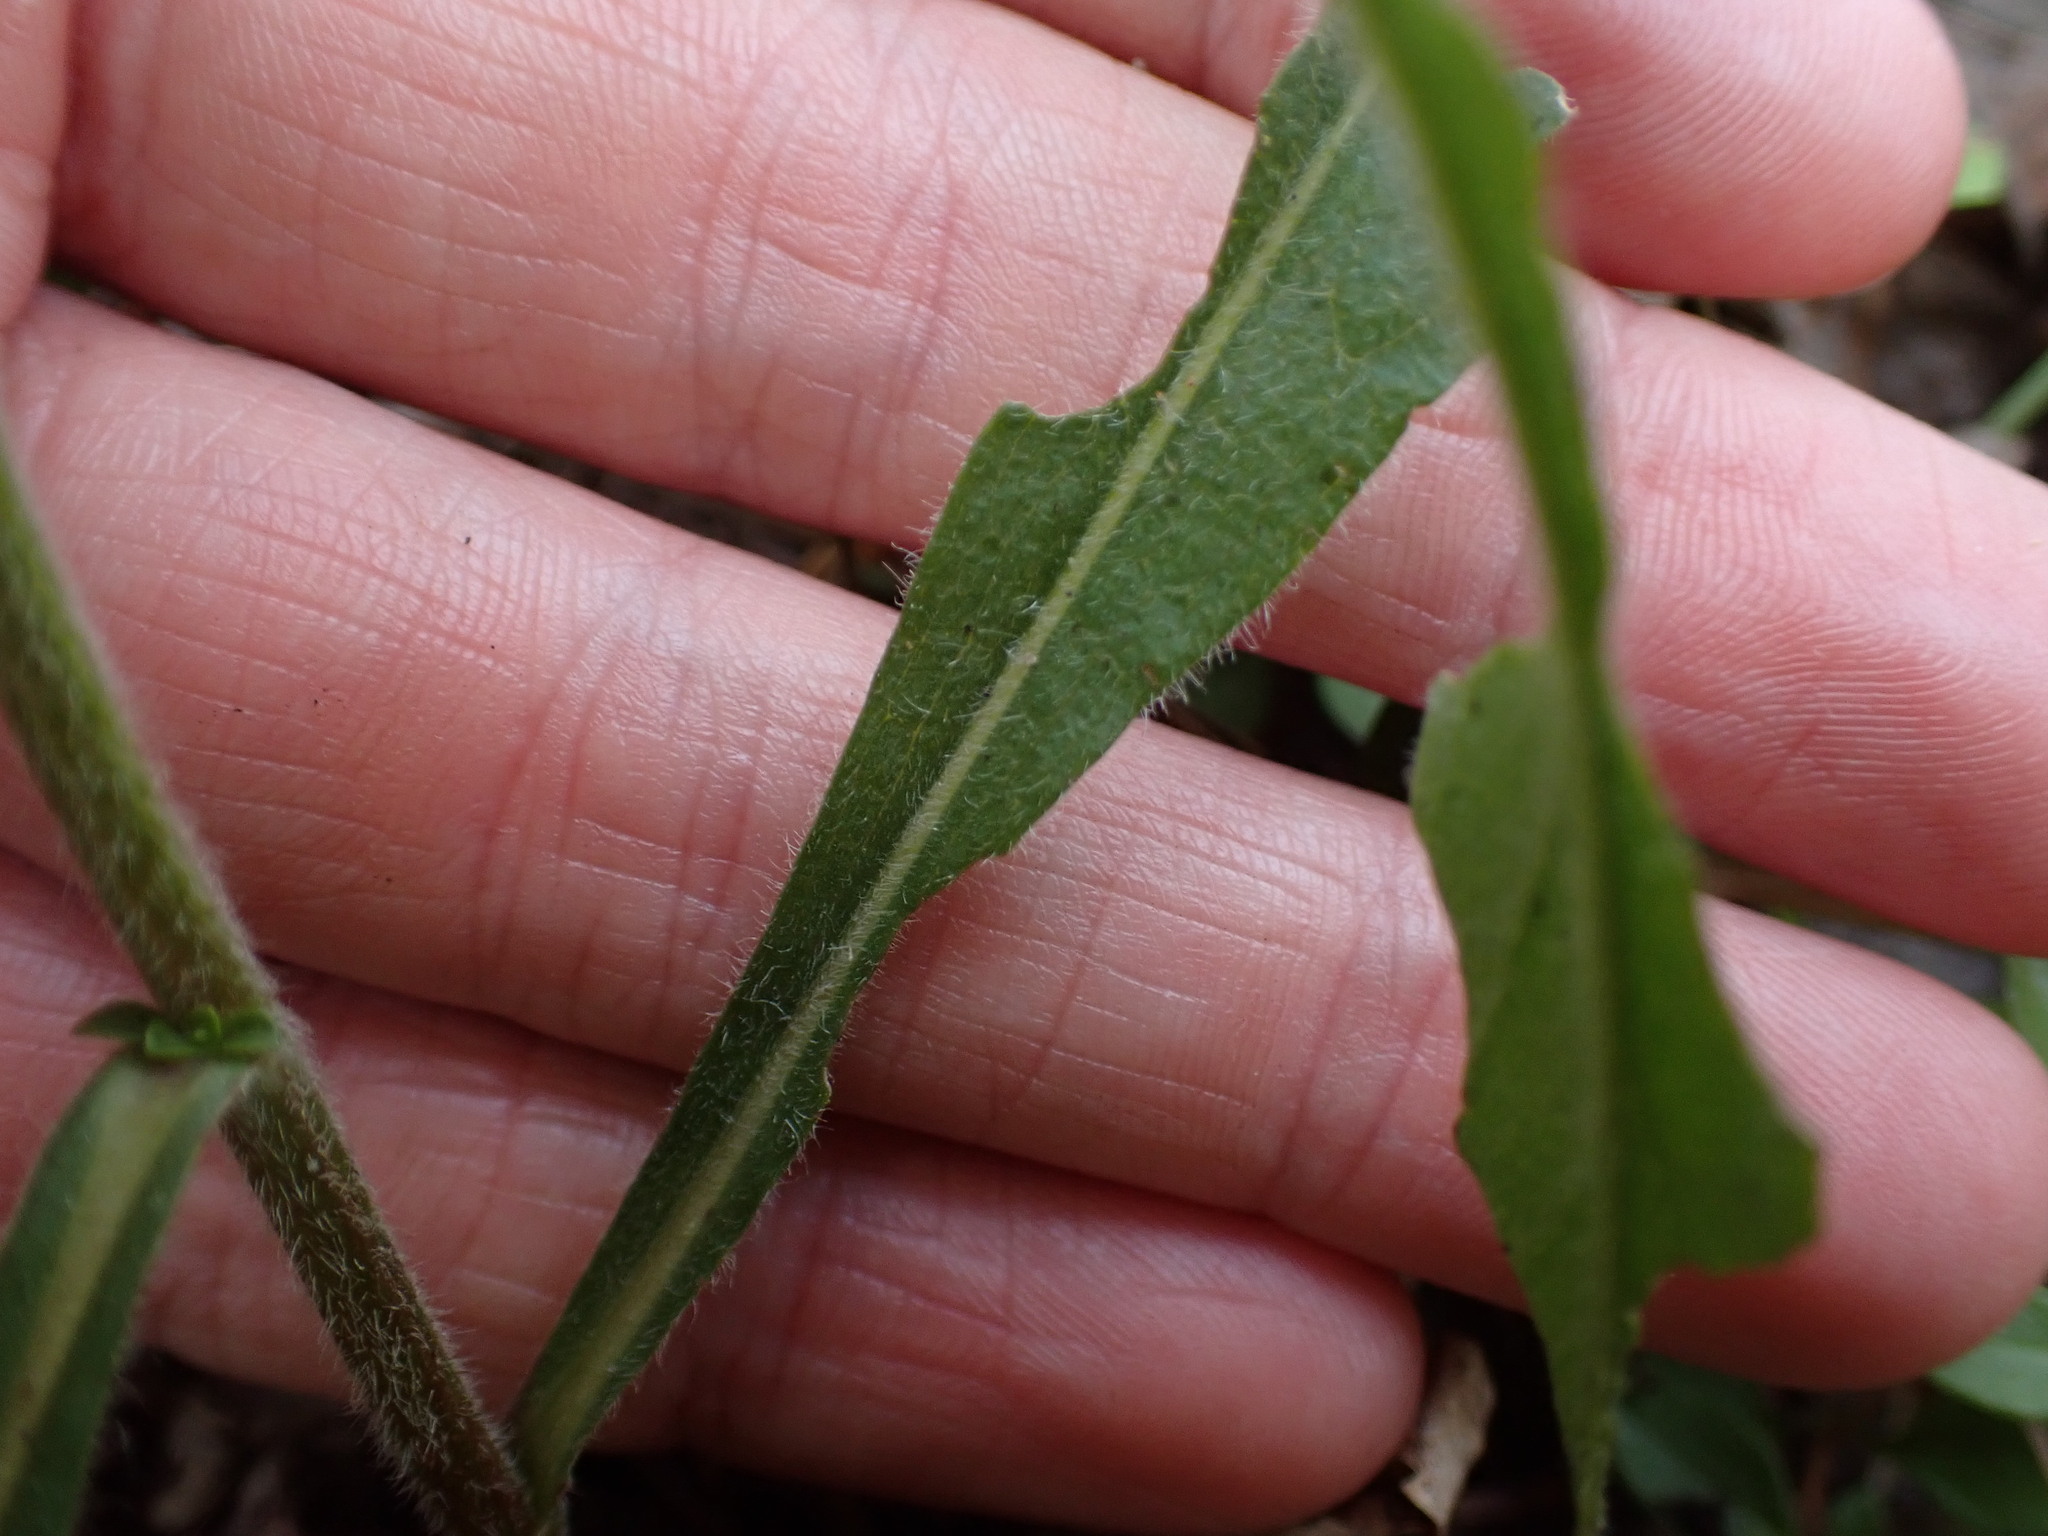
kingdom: Plantae
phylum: Tracheophyta
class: Magnoliopsida
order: Asterales
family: Asteraceae
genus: Solidago
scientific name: Solidago hispida
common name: Hairy goldenrod
